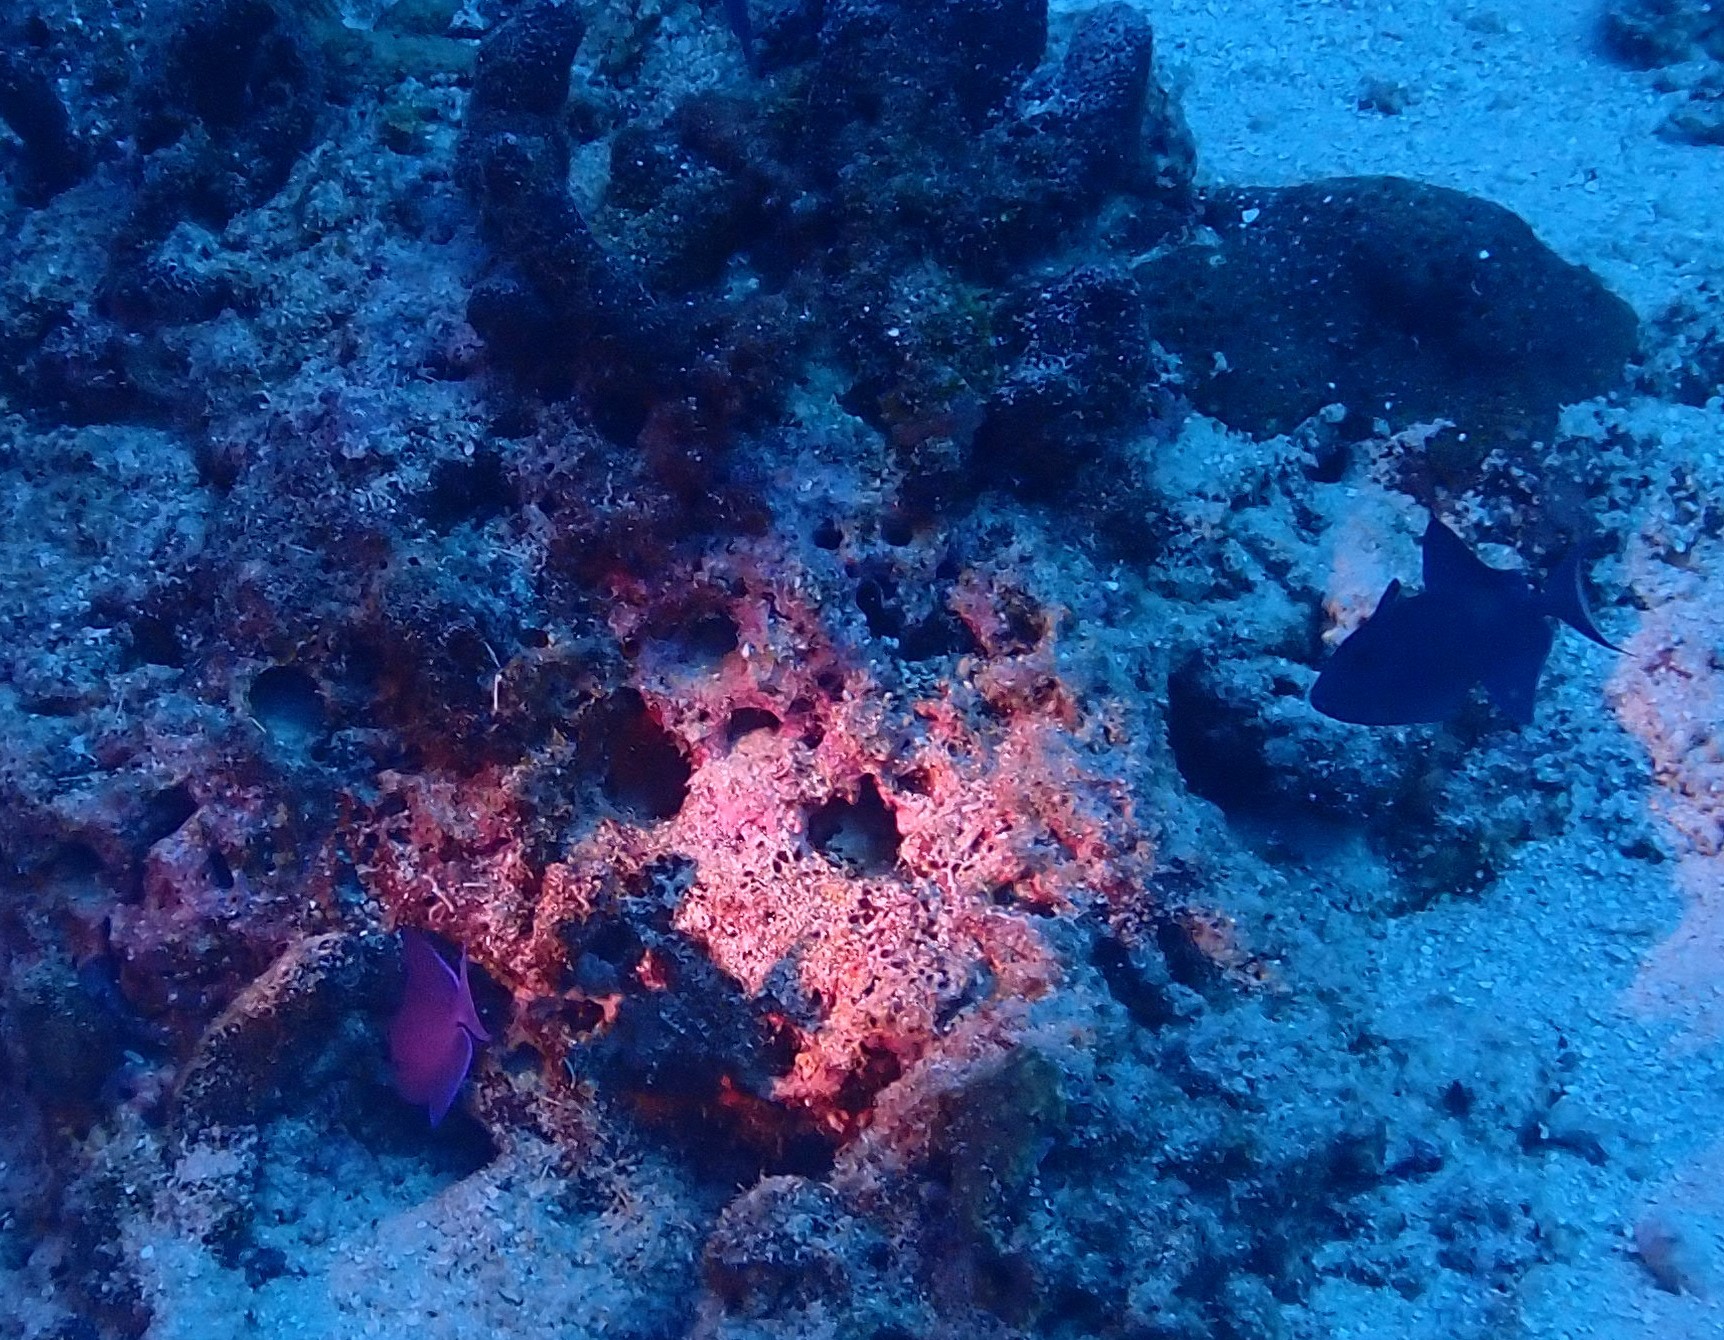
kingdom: Animalia
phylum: Chordata
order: Tetraodontiformes
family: Balistidae
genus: Odonus
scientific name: Odonus niger
